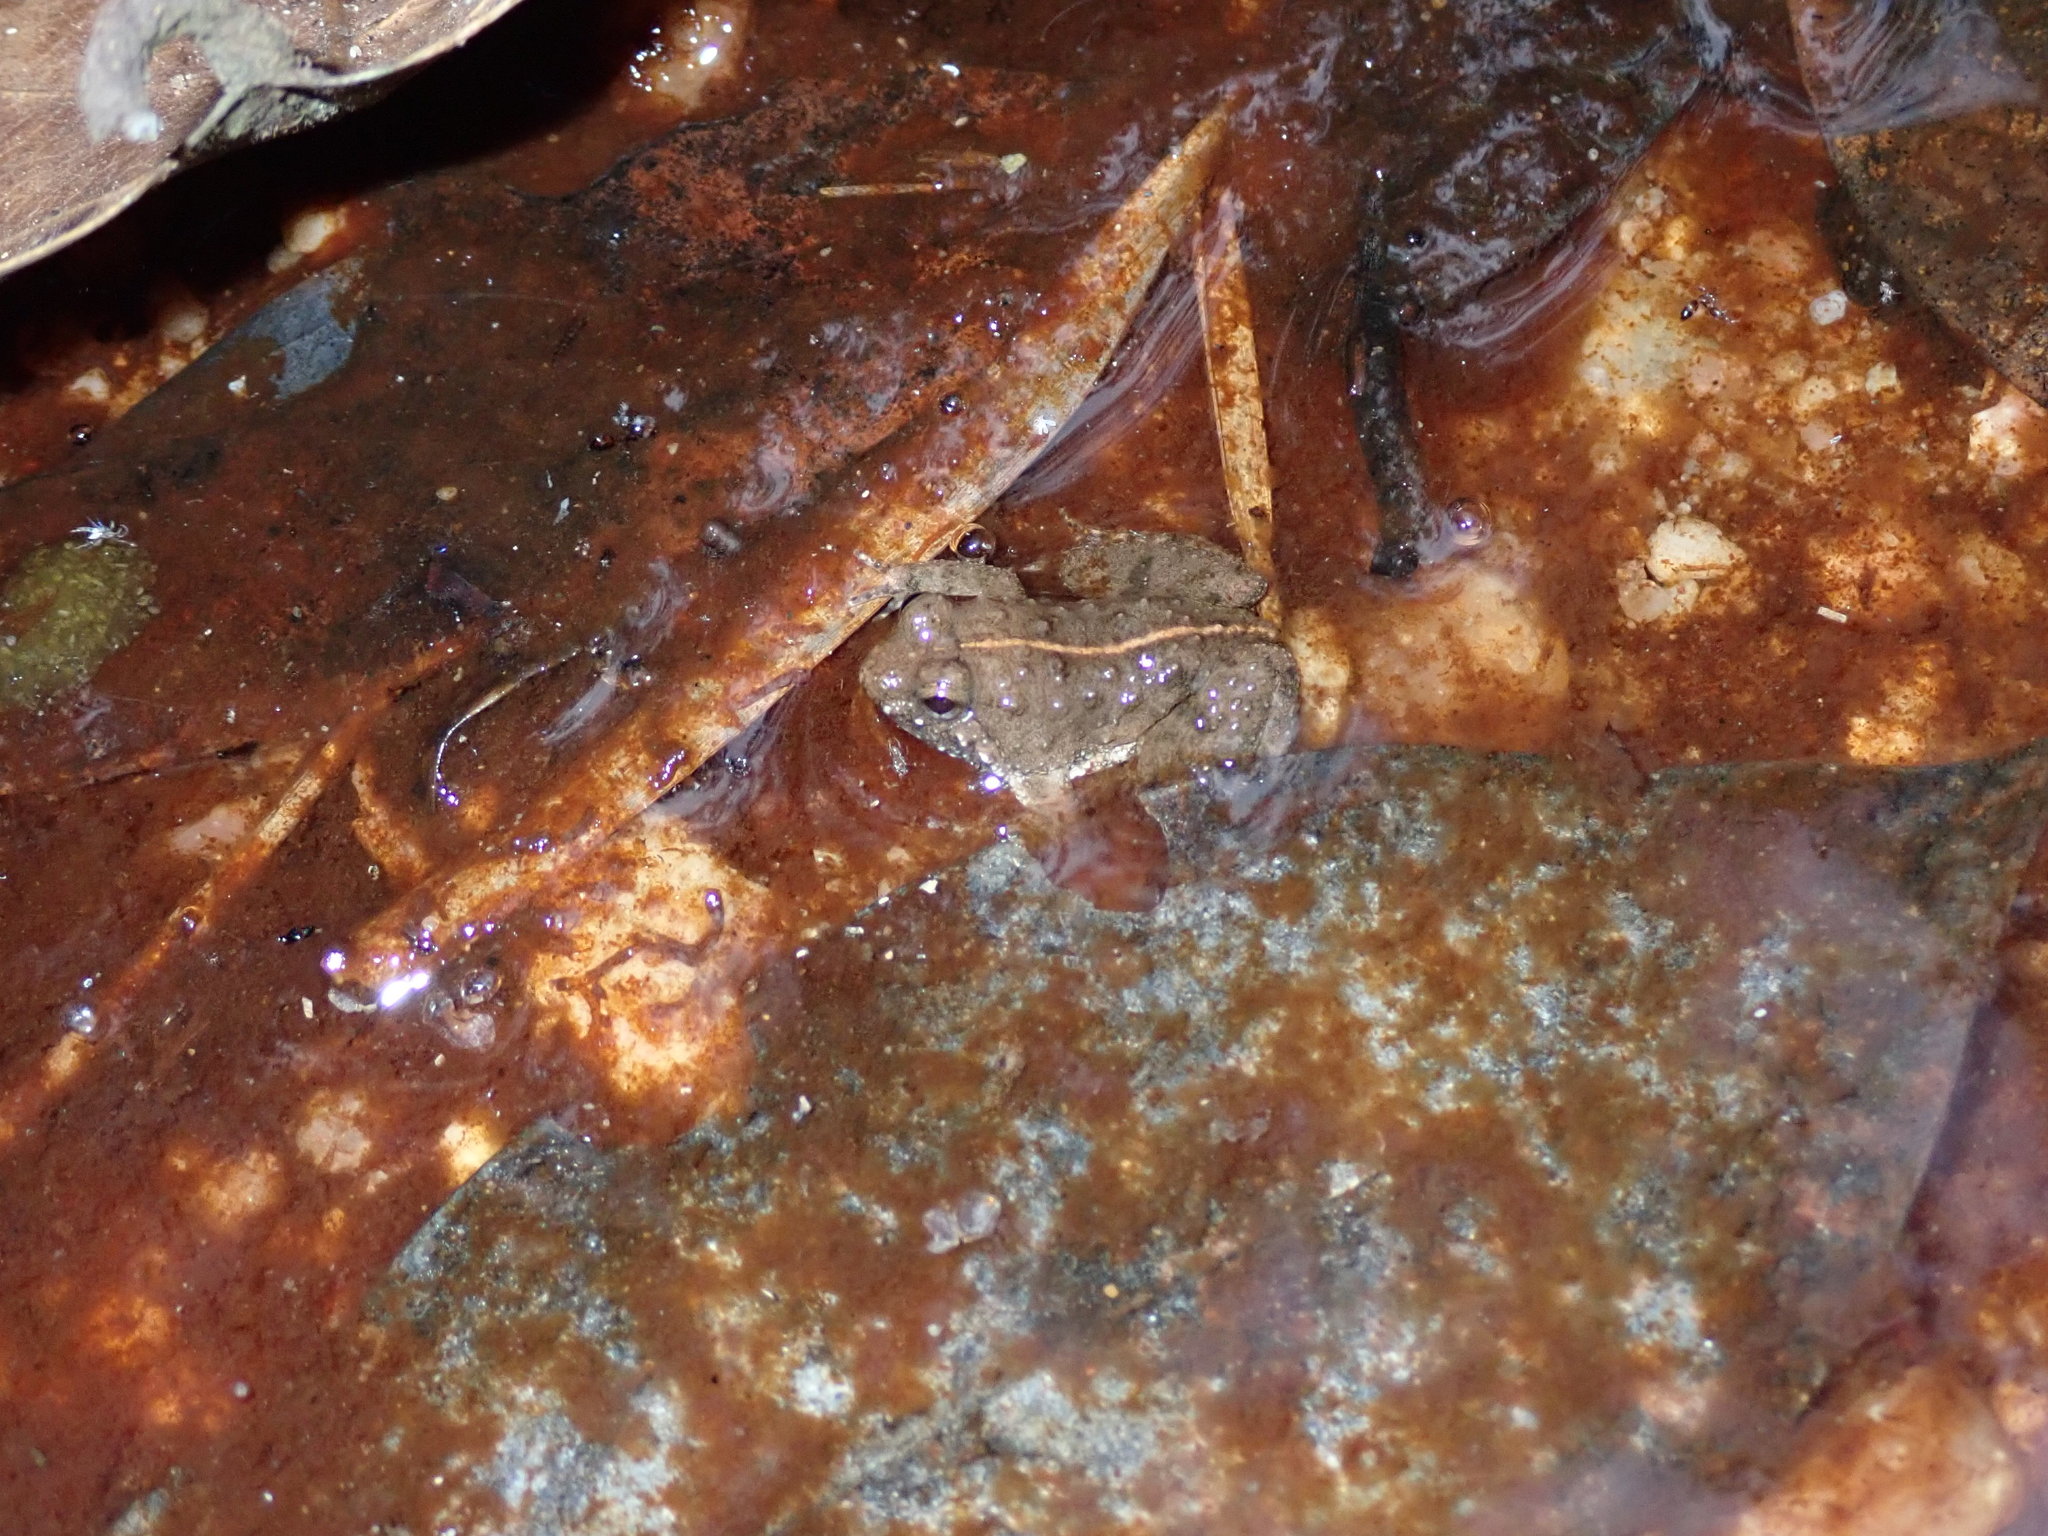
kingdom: Animalia
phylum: Chordata
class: Amphibia
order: Anura
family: Dicroglossidae
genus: Occidozyga
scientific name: Occidozyga magnapustulosa
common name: Thai oriental frog
